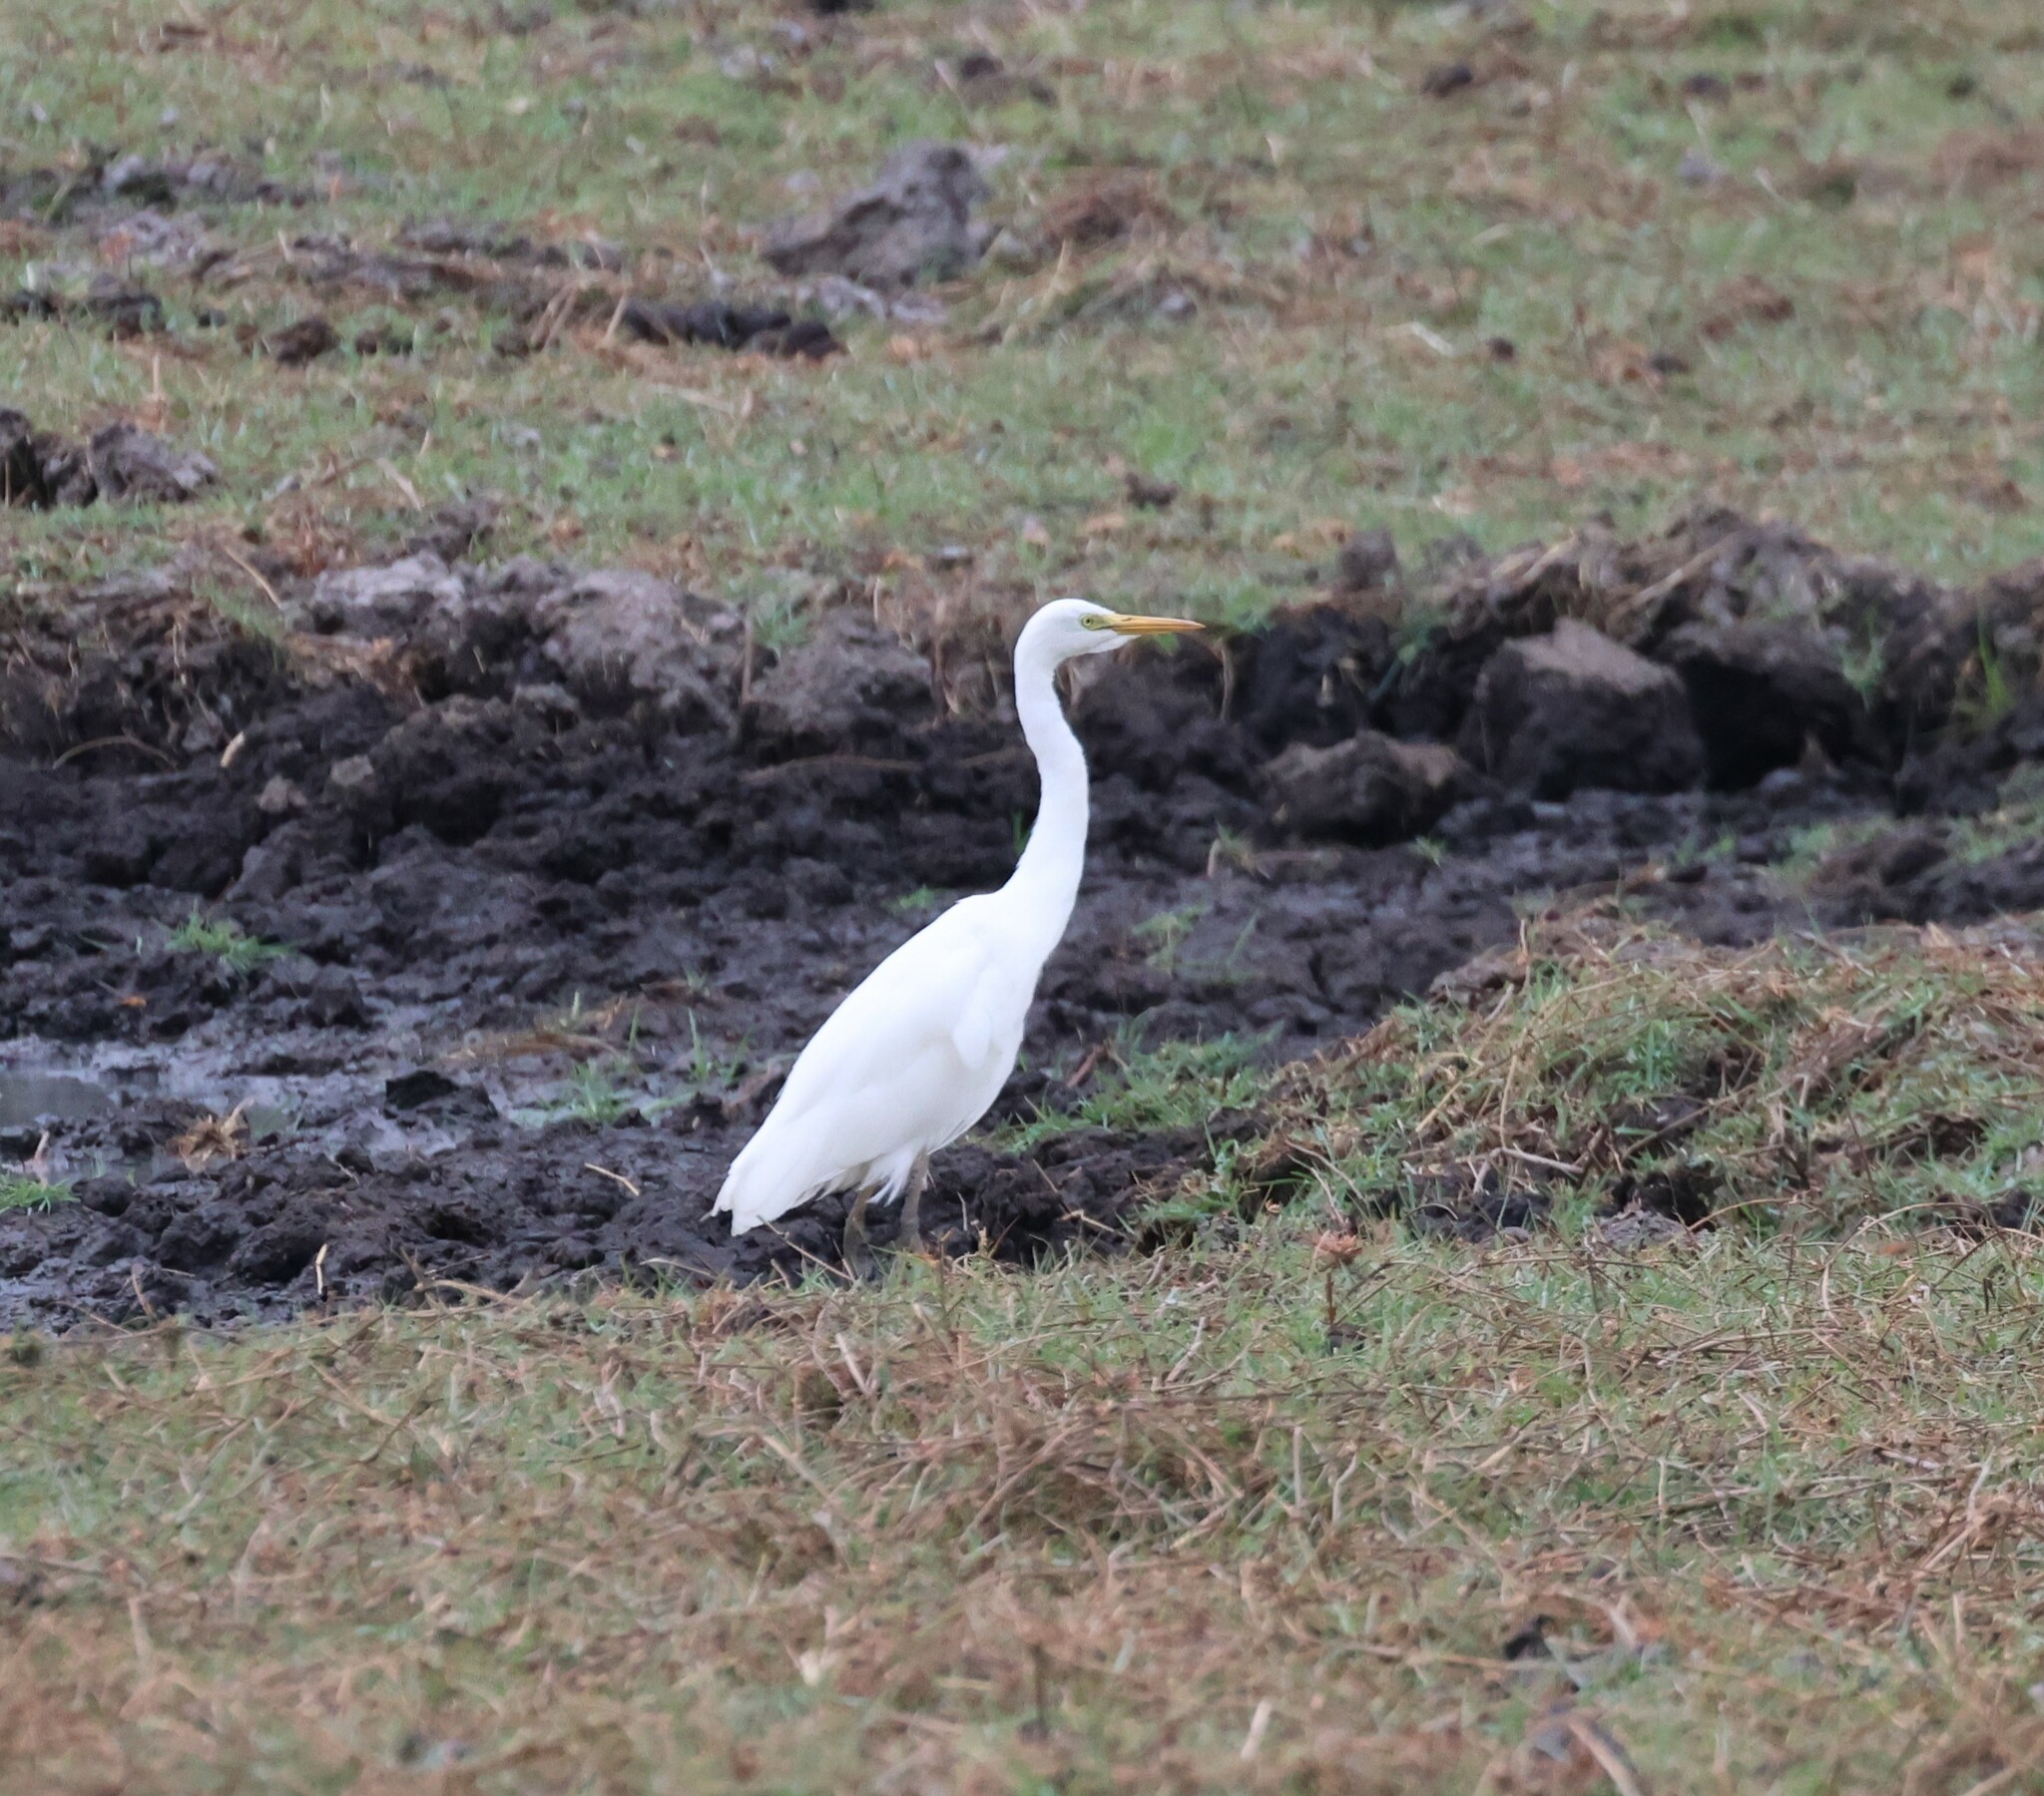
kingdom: Animalia
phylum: Chordata
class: Aves
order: Pelecaniformes
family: Ardeidae
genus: Egretta
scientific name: Egretta intermedia
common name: Intermediate egret
